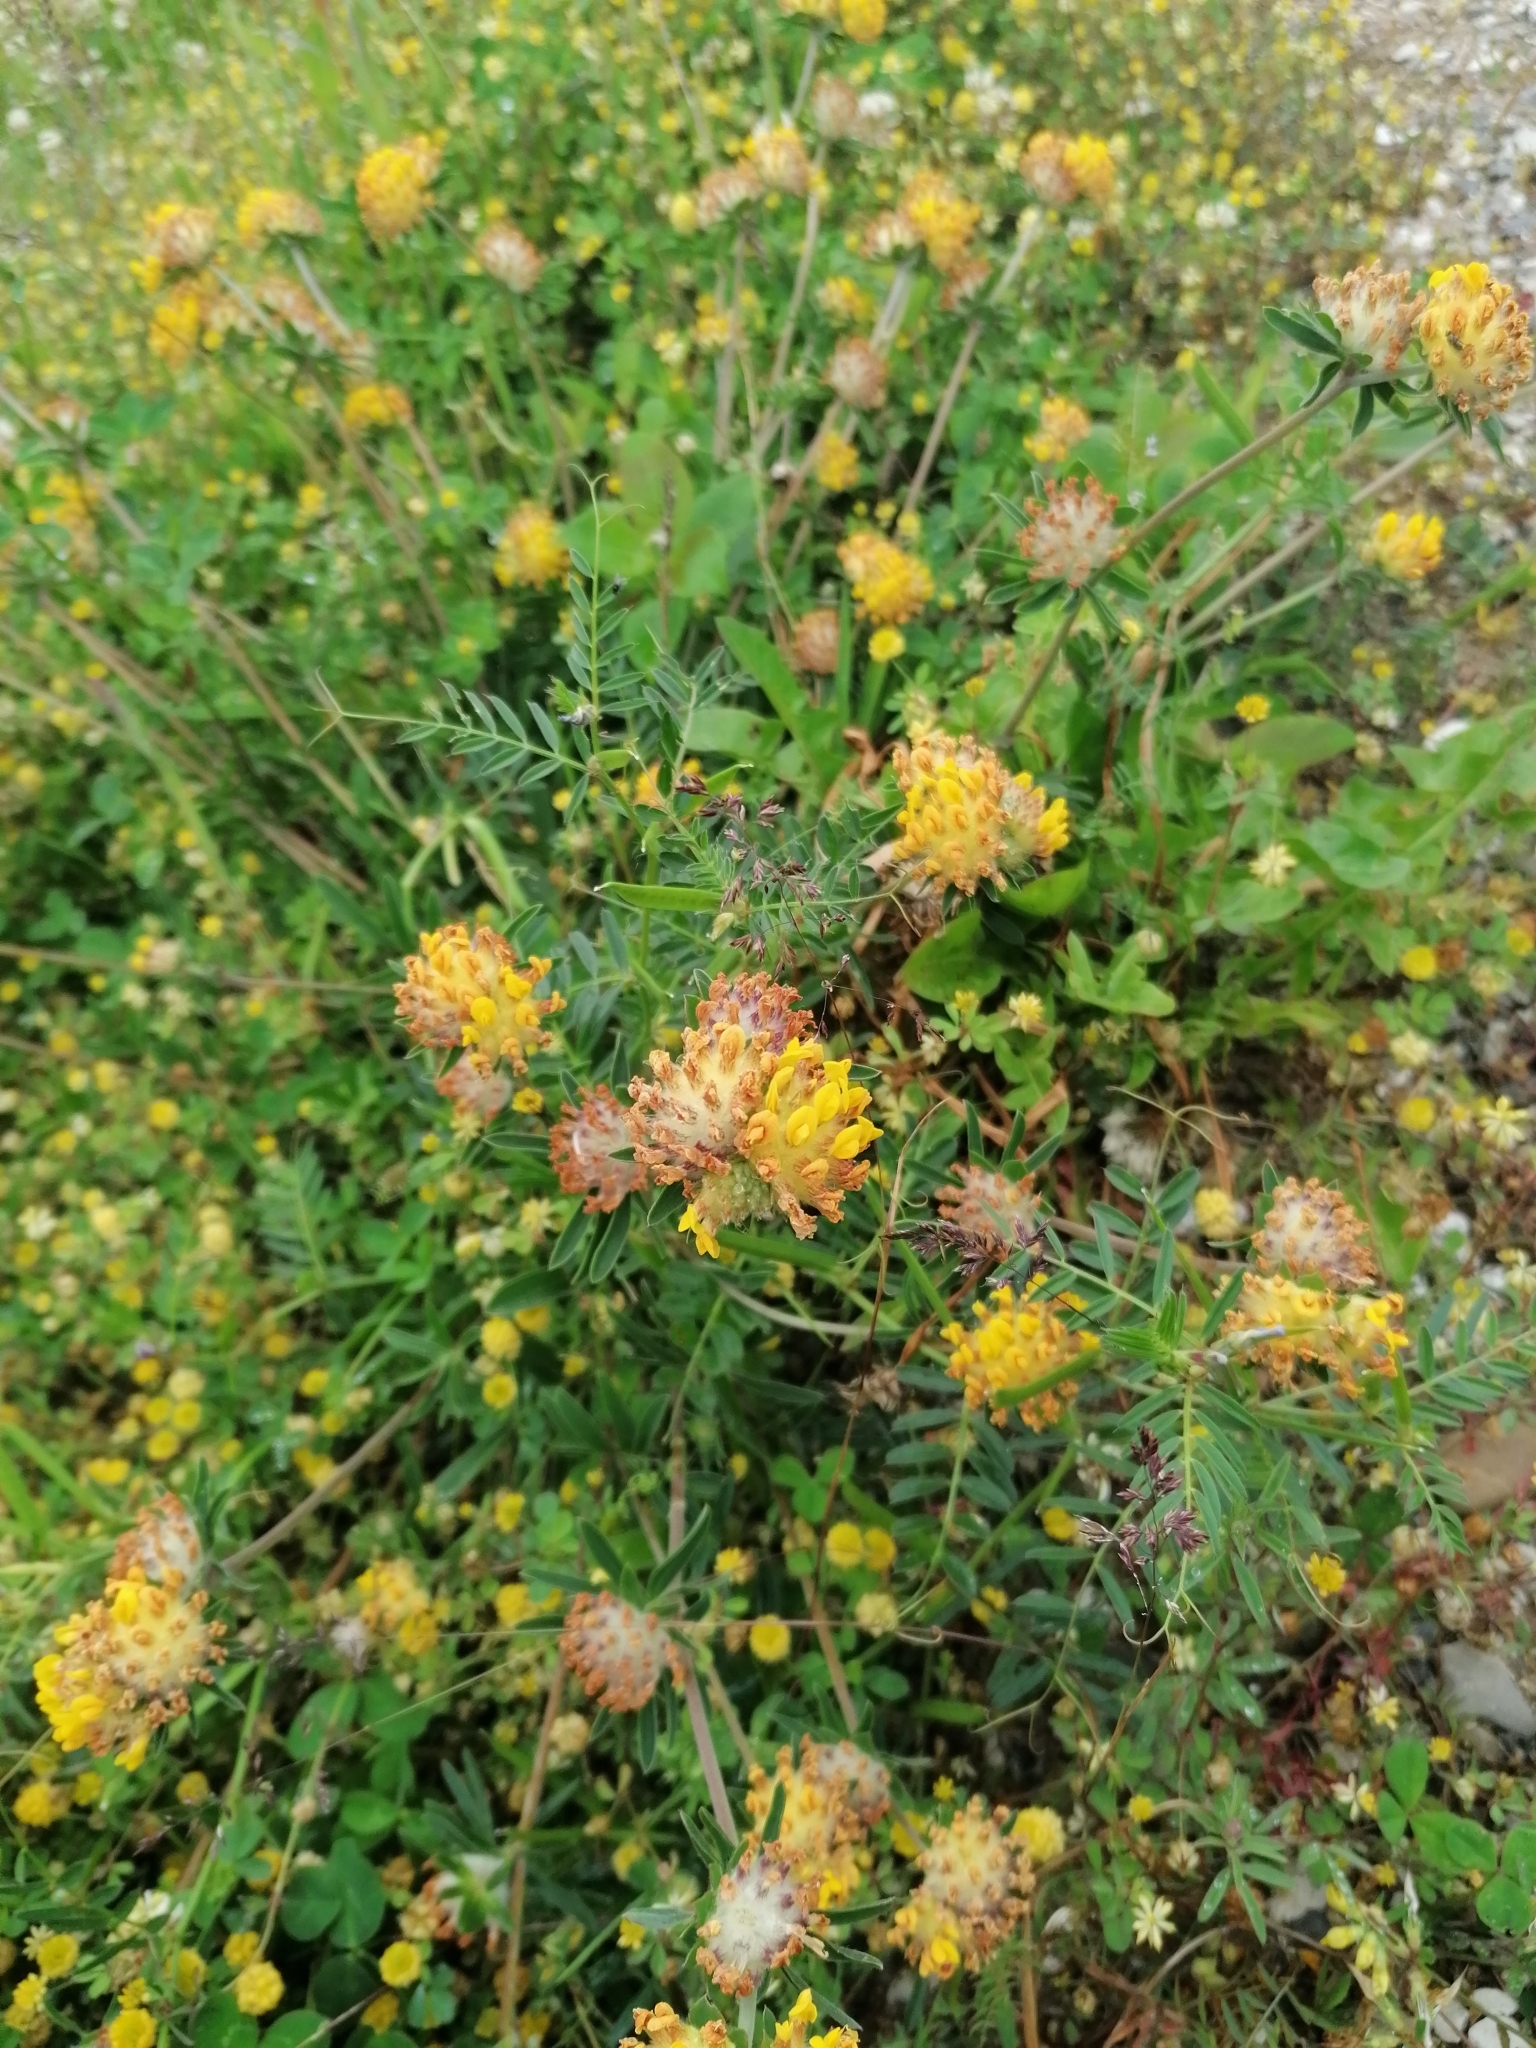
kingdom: Plantae
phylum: Tracheophyta
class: Magnoliopsida
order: Fabales
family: Fabaceae
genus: Anthyllis
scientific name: Anthyllis vulneraria
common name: Kidney vetch
